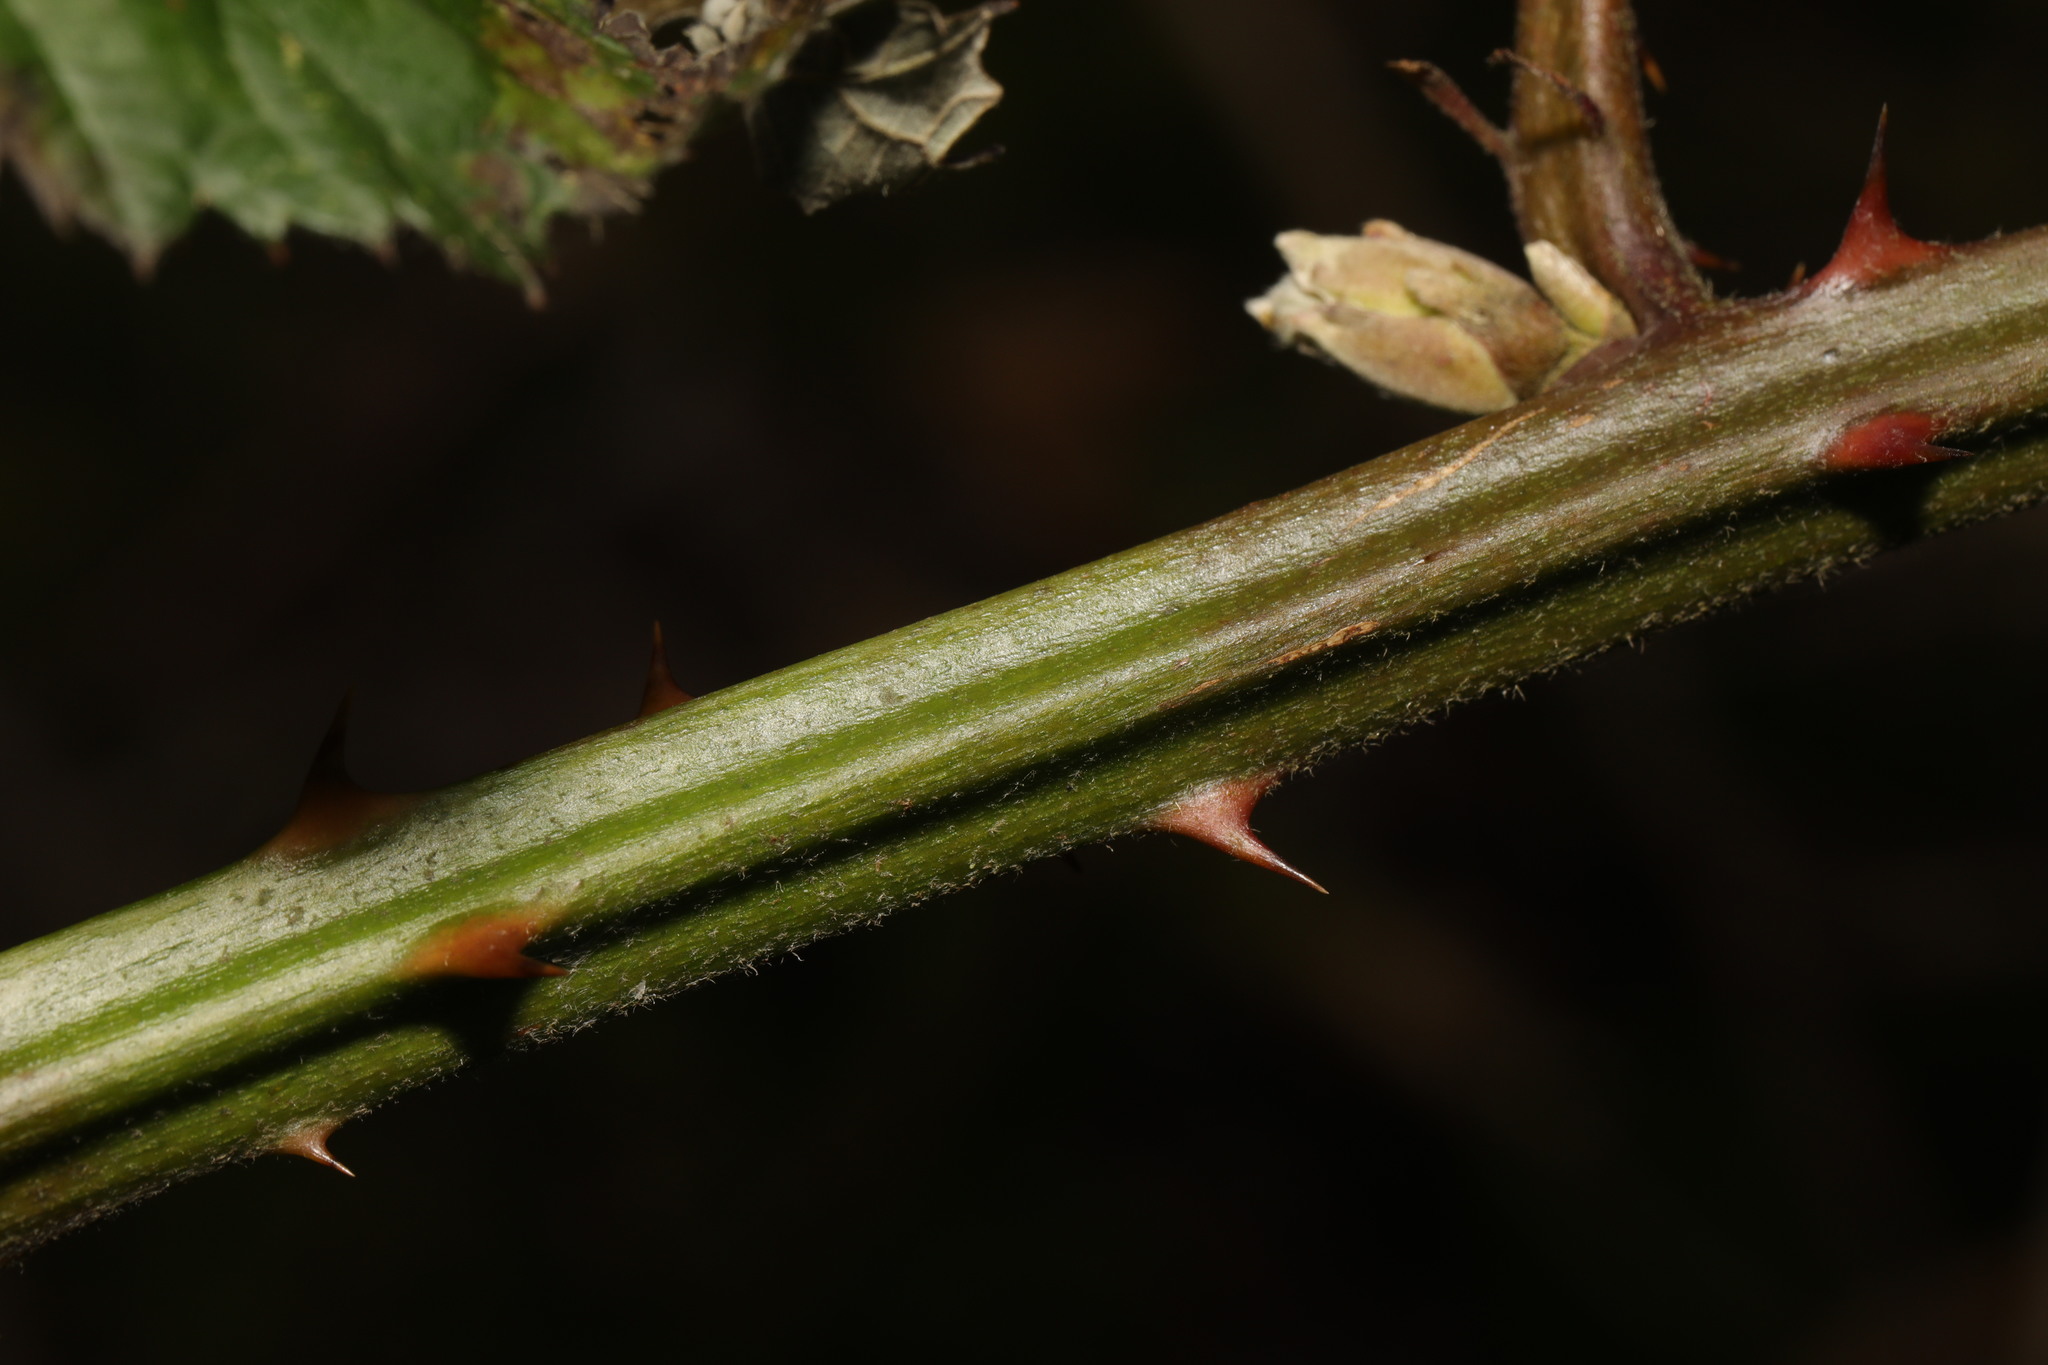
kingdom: Plantae
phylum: Tracheophyta
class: Magnoliopsida
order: Rosales
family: Rosaceae
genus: Rubus
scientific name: Rubus armeniacus
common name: Himalayan blackberry
